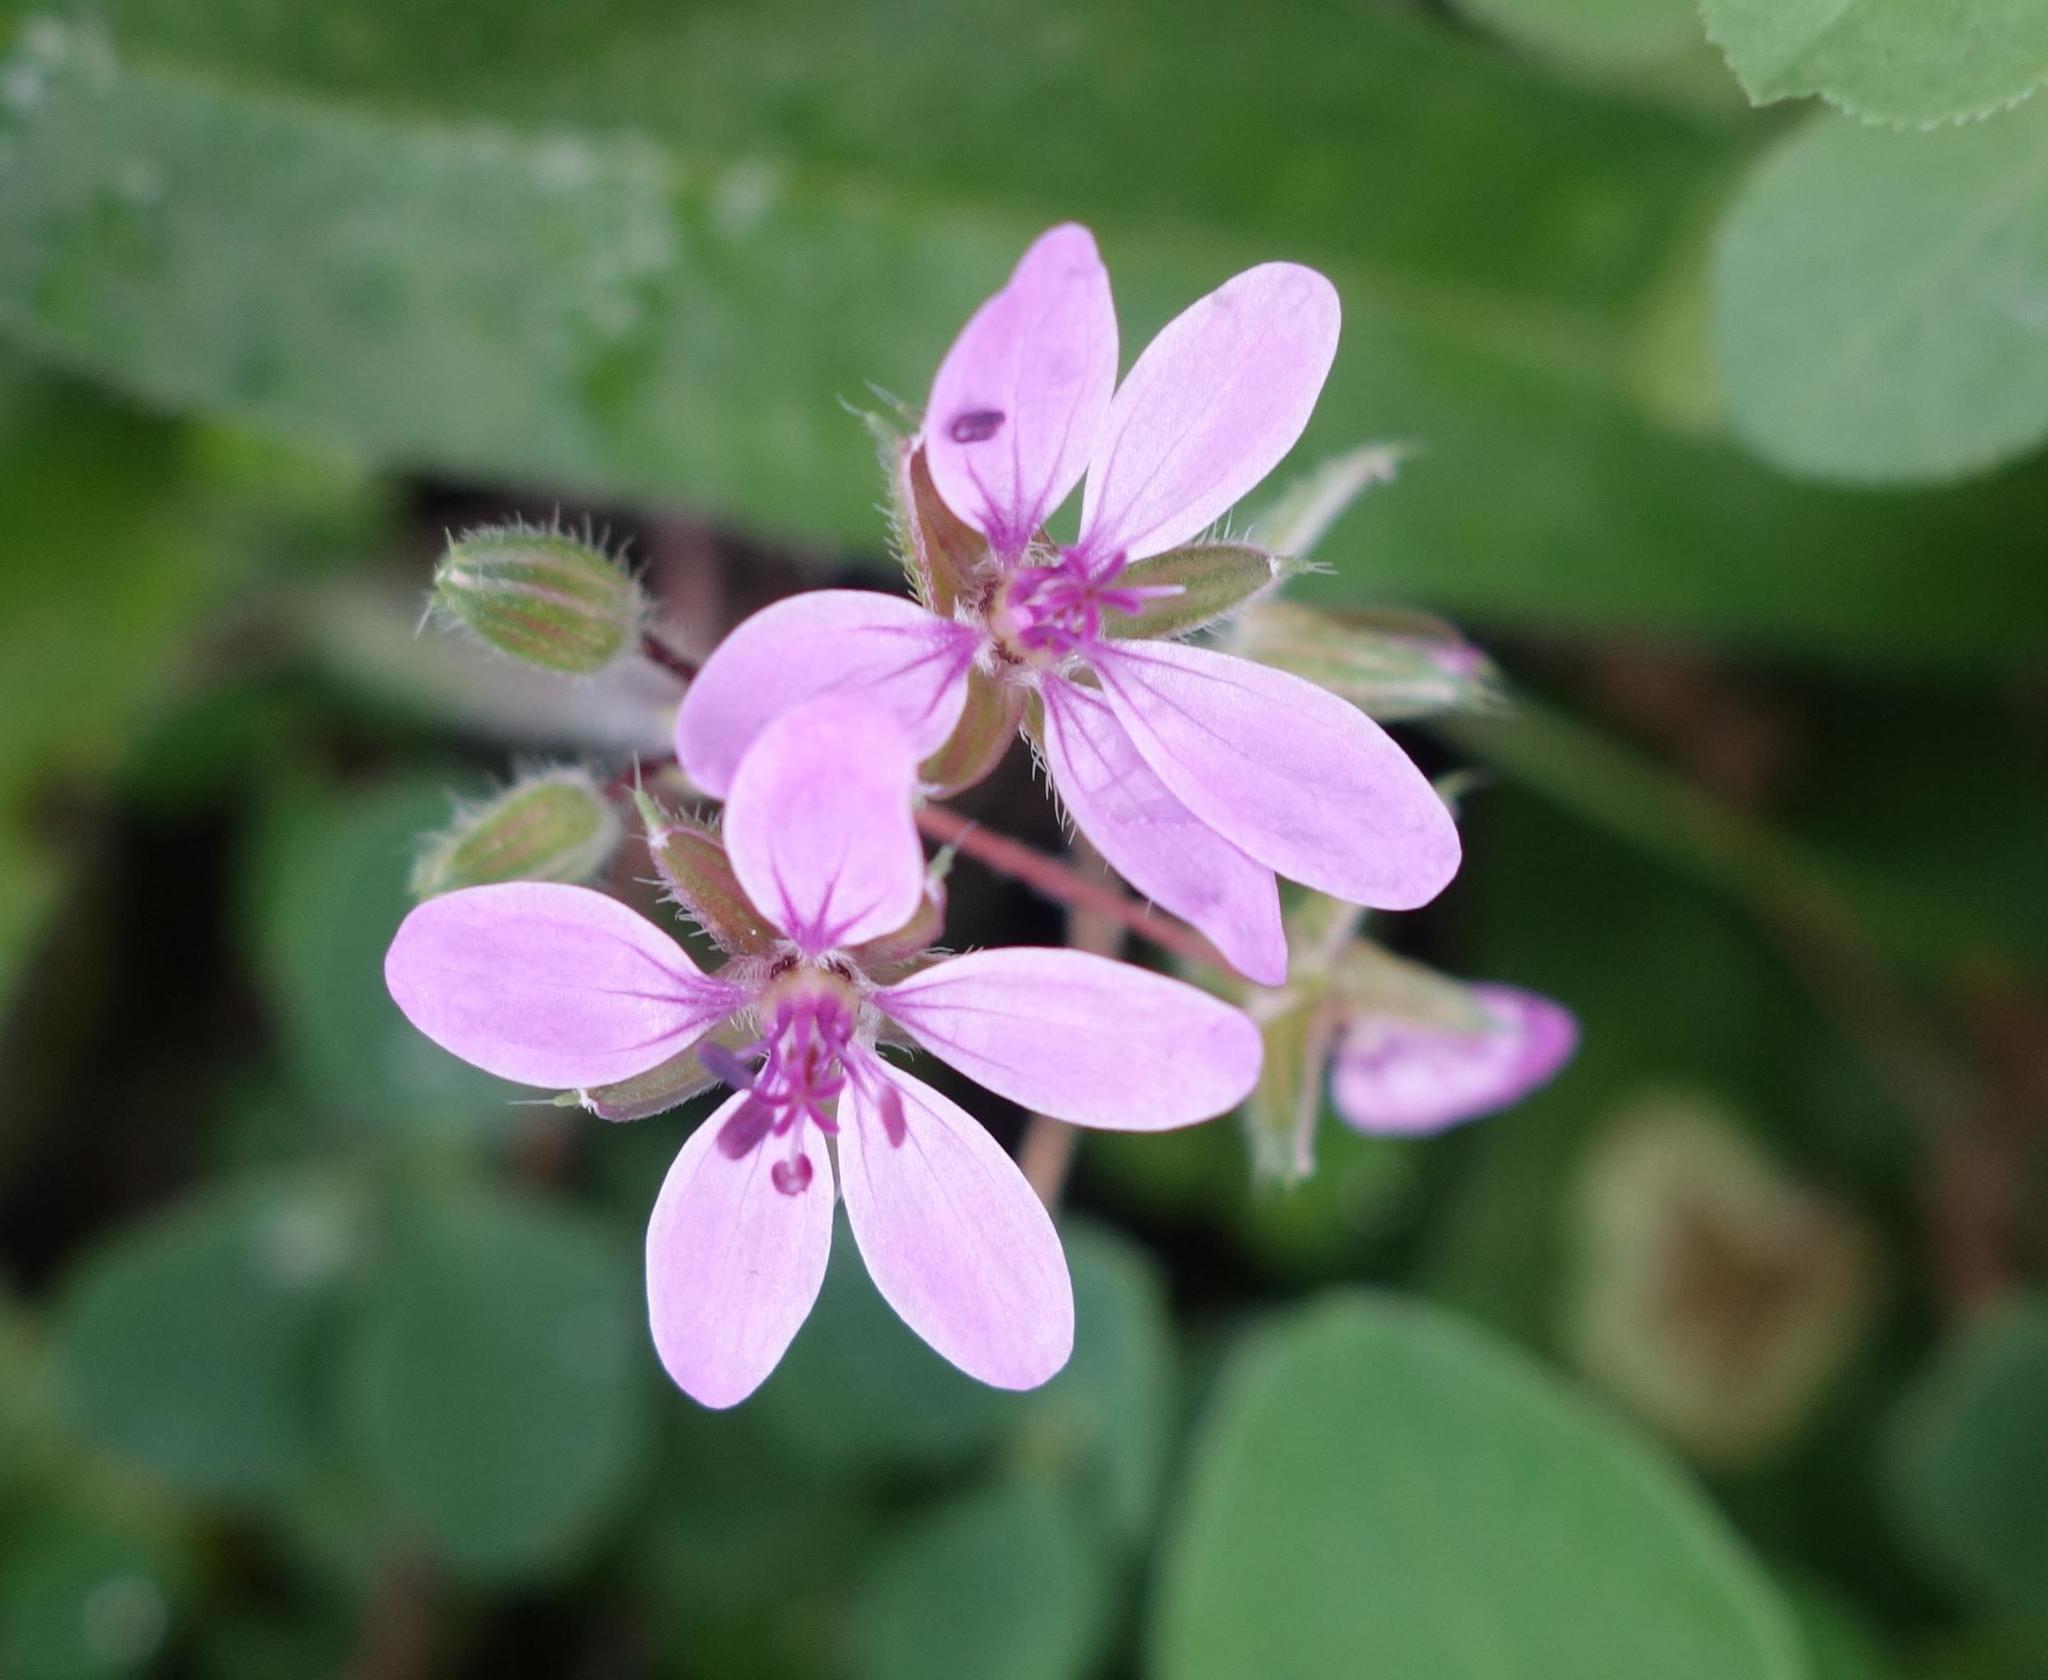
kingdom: Plantae
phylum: Tracheophyta
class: Magnoliopsida
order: Geraniales
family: Geraniaceae
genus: Erodium
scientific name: Erodium cicutarium
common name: Common stork's-bill
